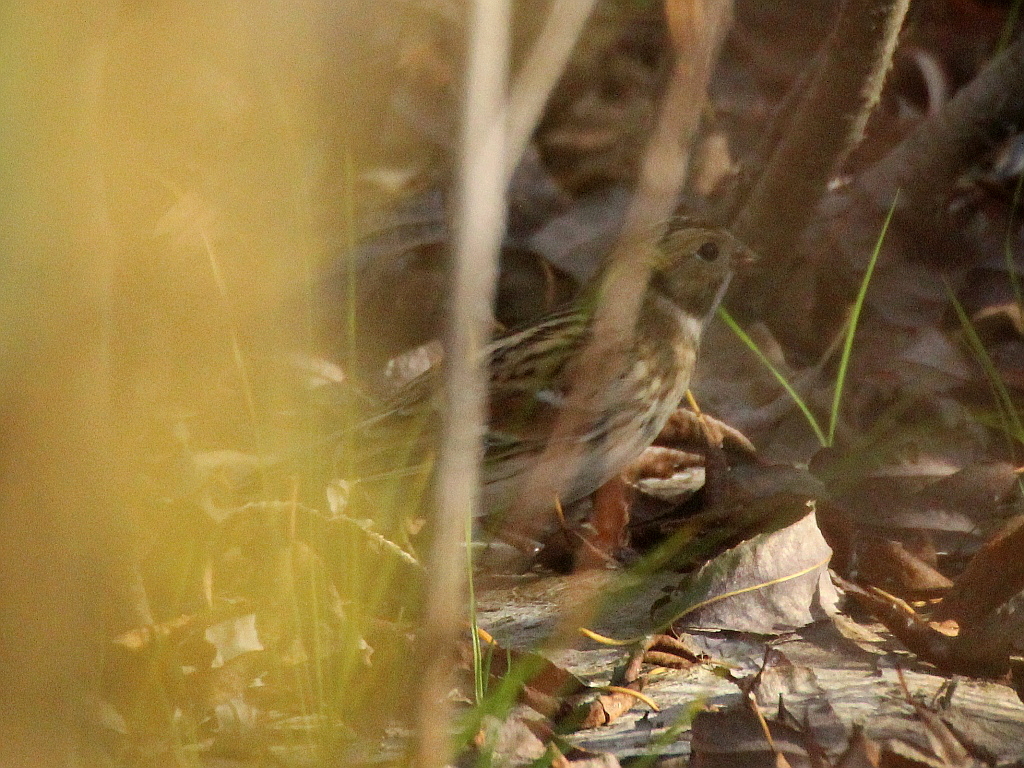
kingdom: Animalia
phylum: Chordata
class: Aves
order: Passeriformes
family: Calcariidae
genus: Calcarius
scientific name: Calcarius lapponicus
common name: Lapland longspur
